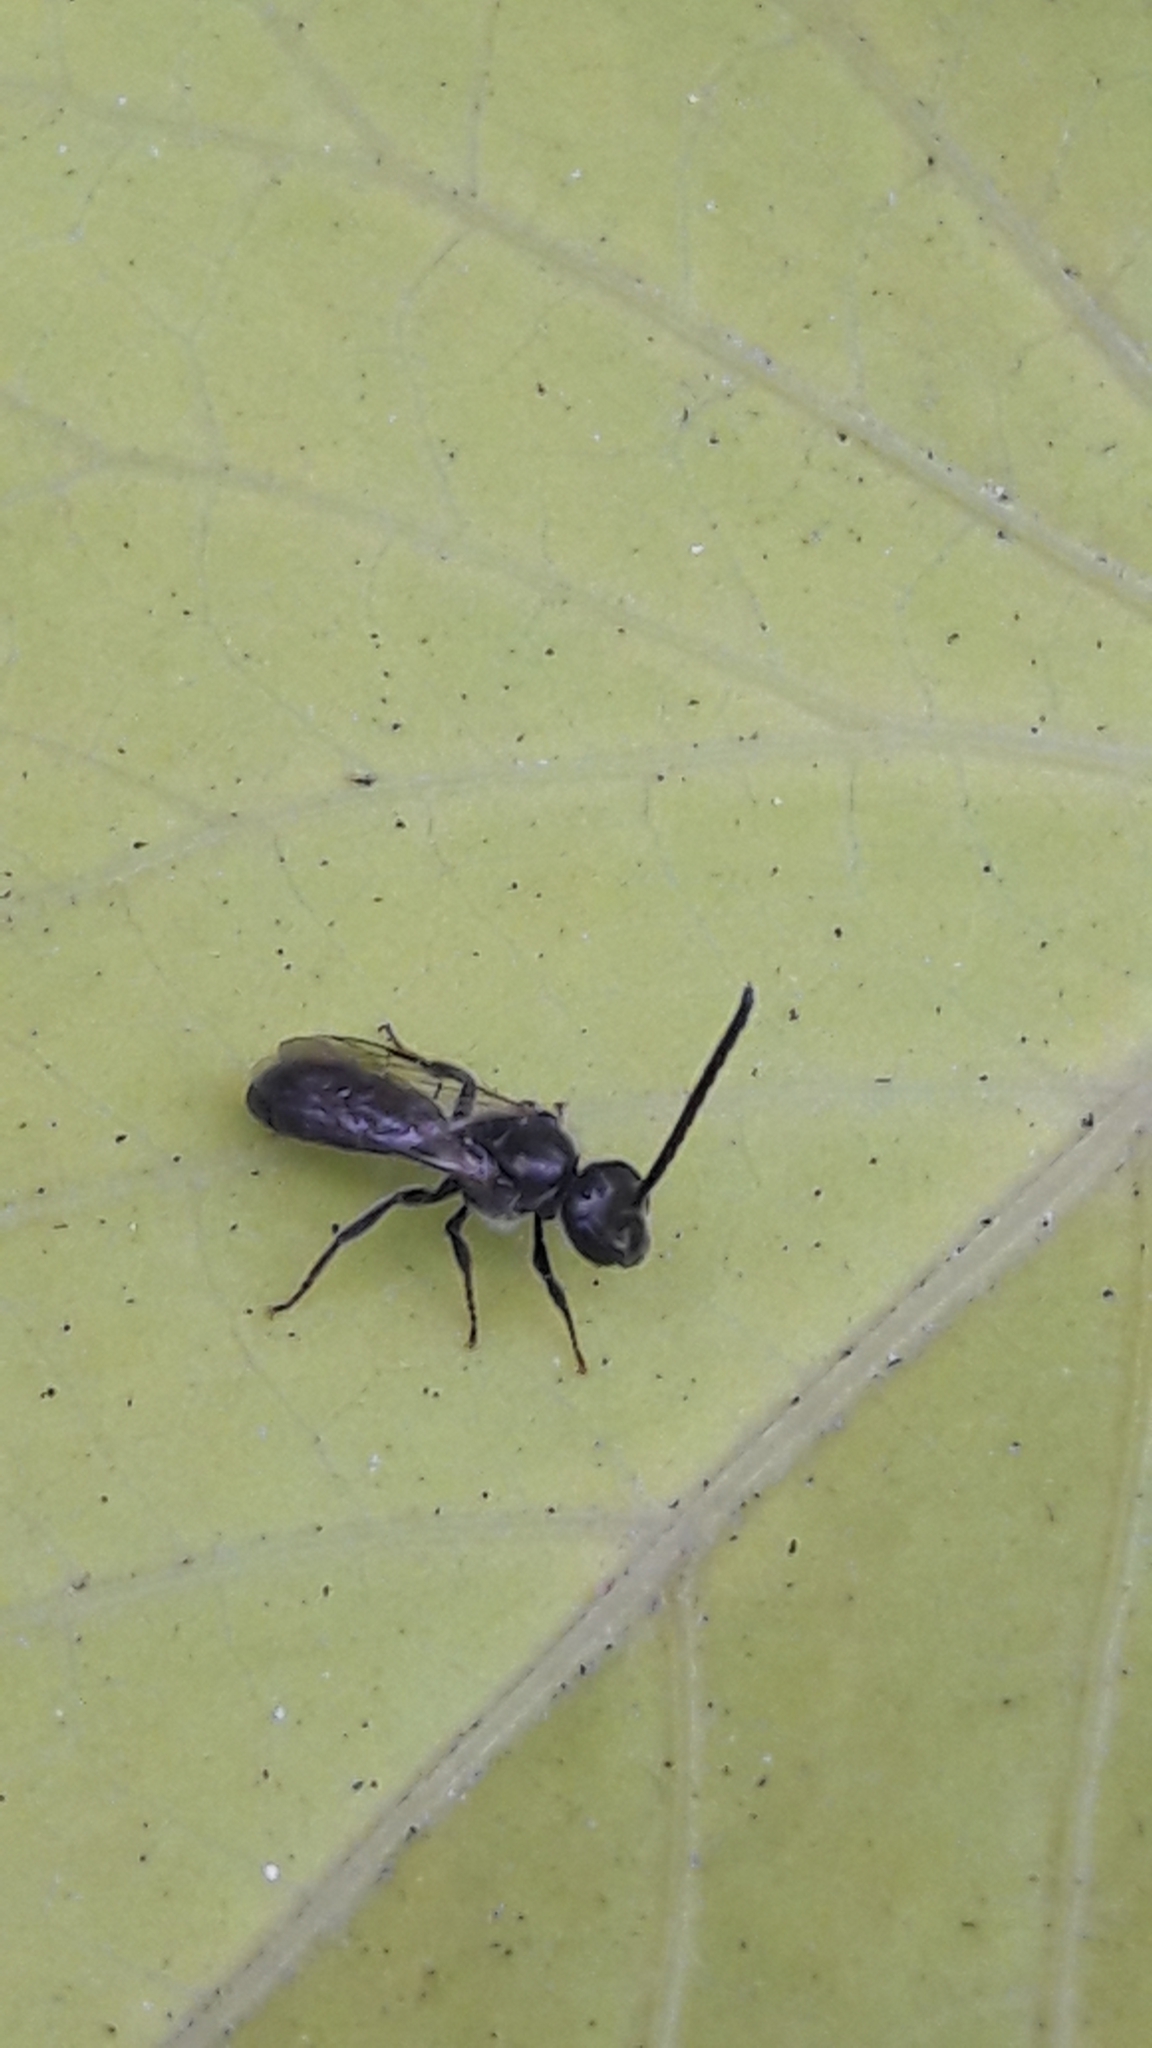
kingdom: Animalia
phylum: Arthropoda
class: Insecta
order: Hymenoptera
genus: Hemihalictus
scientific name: Hemihalictus
